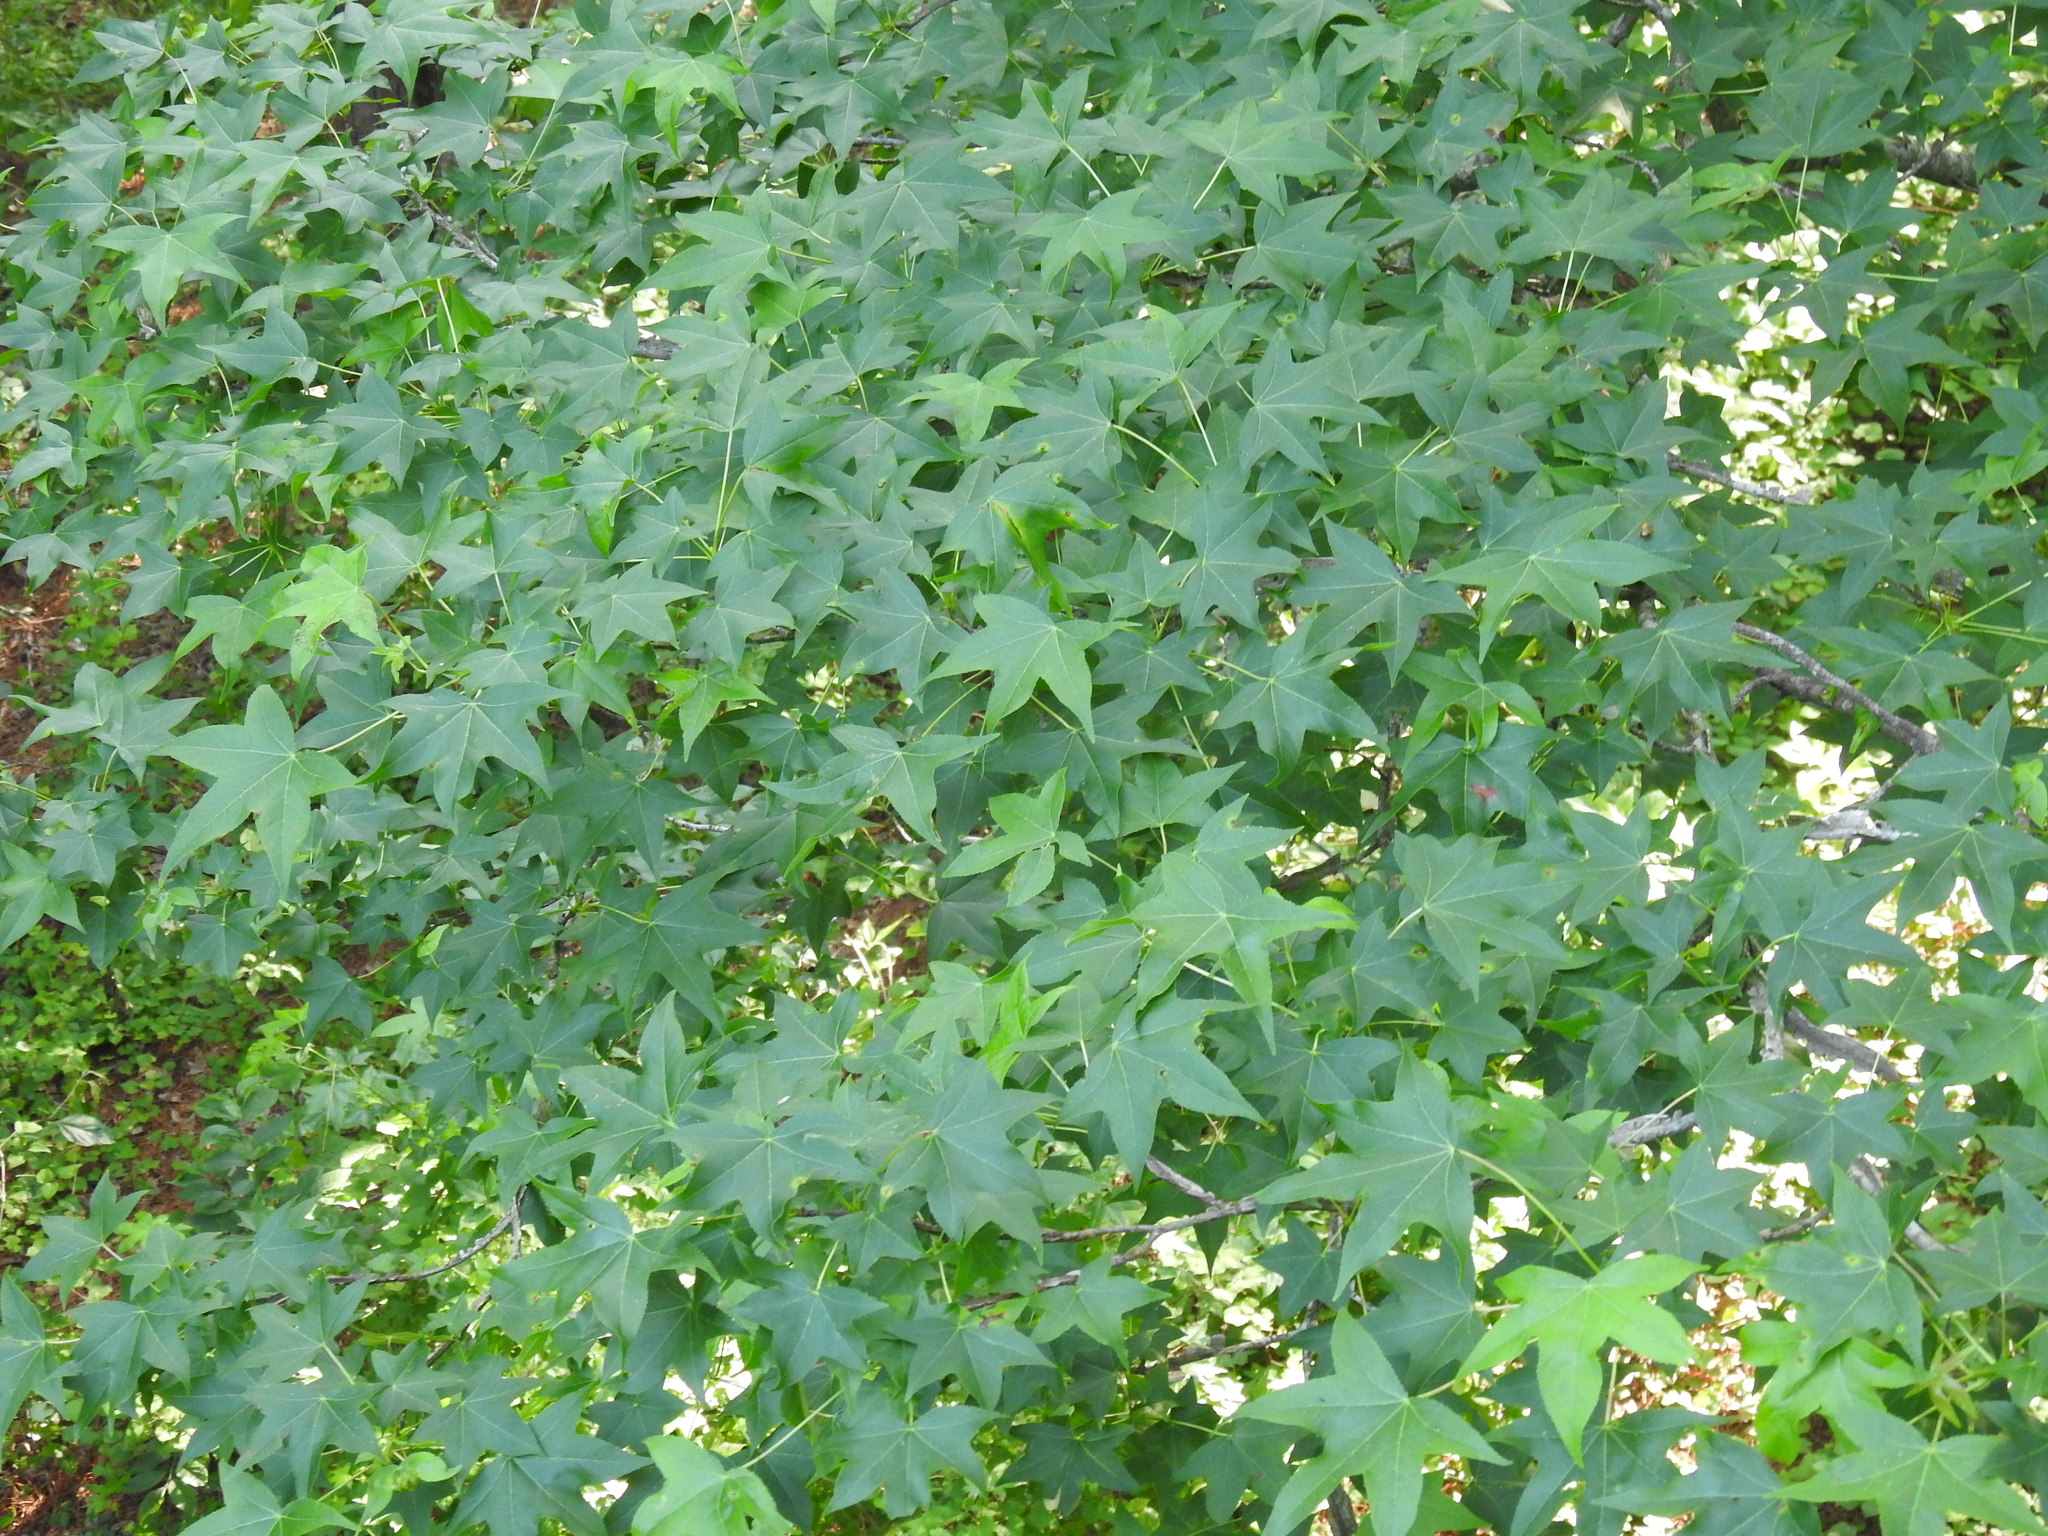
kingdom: Plantae
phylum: Tracheophyta
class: Magnoliopsida
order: Saxifragales
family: Altingiaceae
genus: Liquidambar
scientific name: Liquidambar styraciflua
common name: Sweet gum
